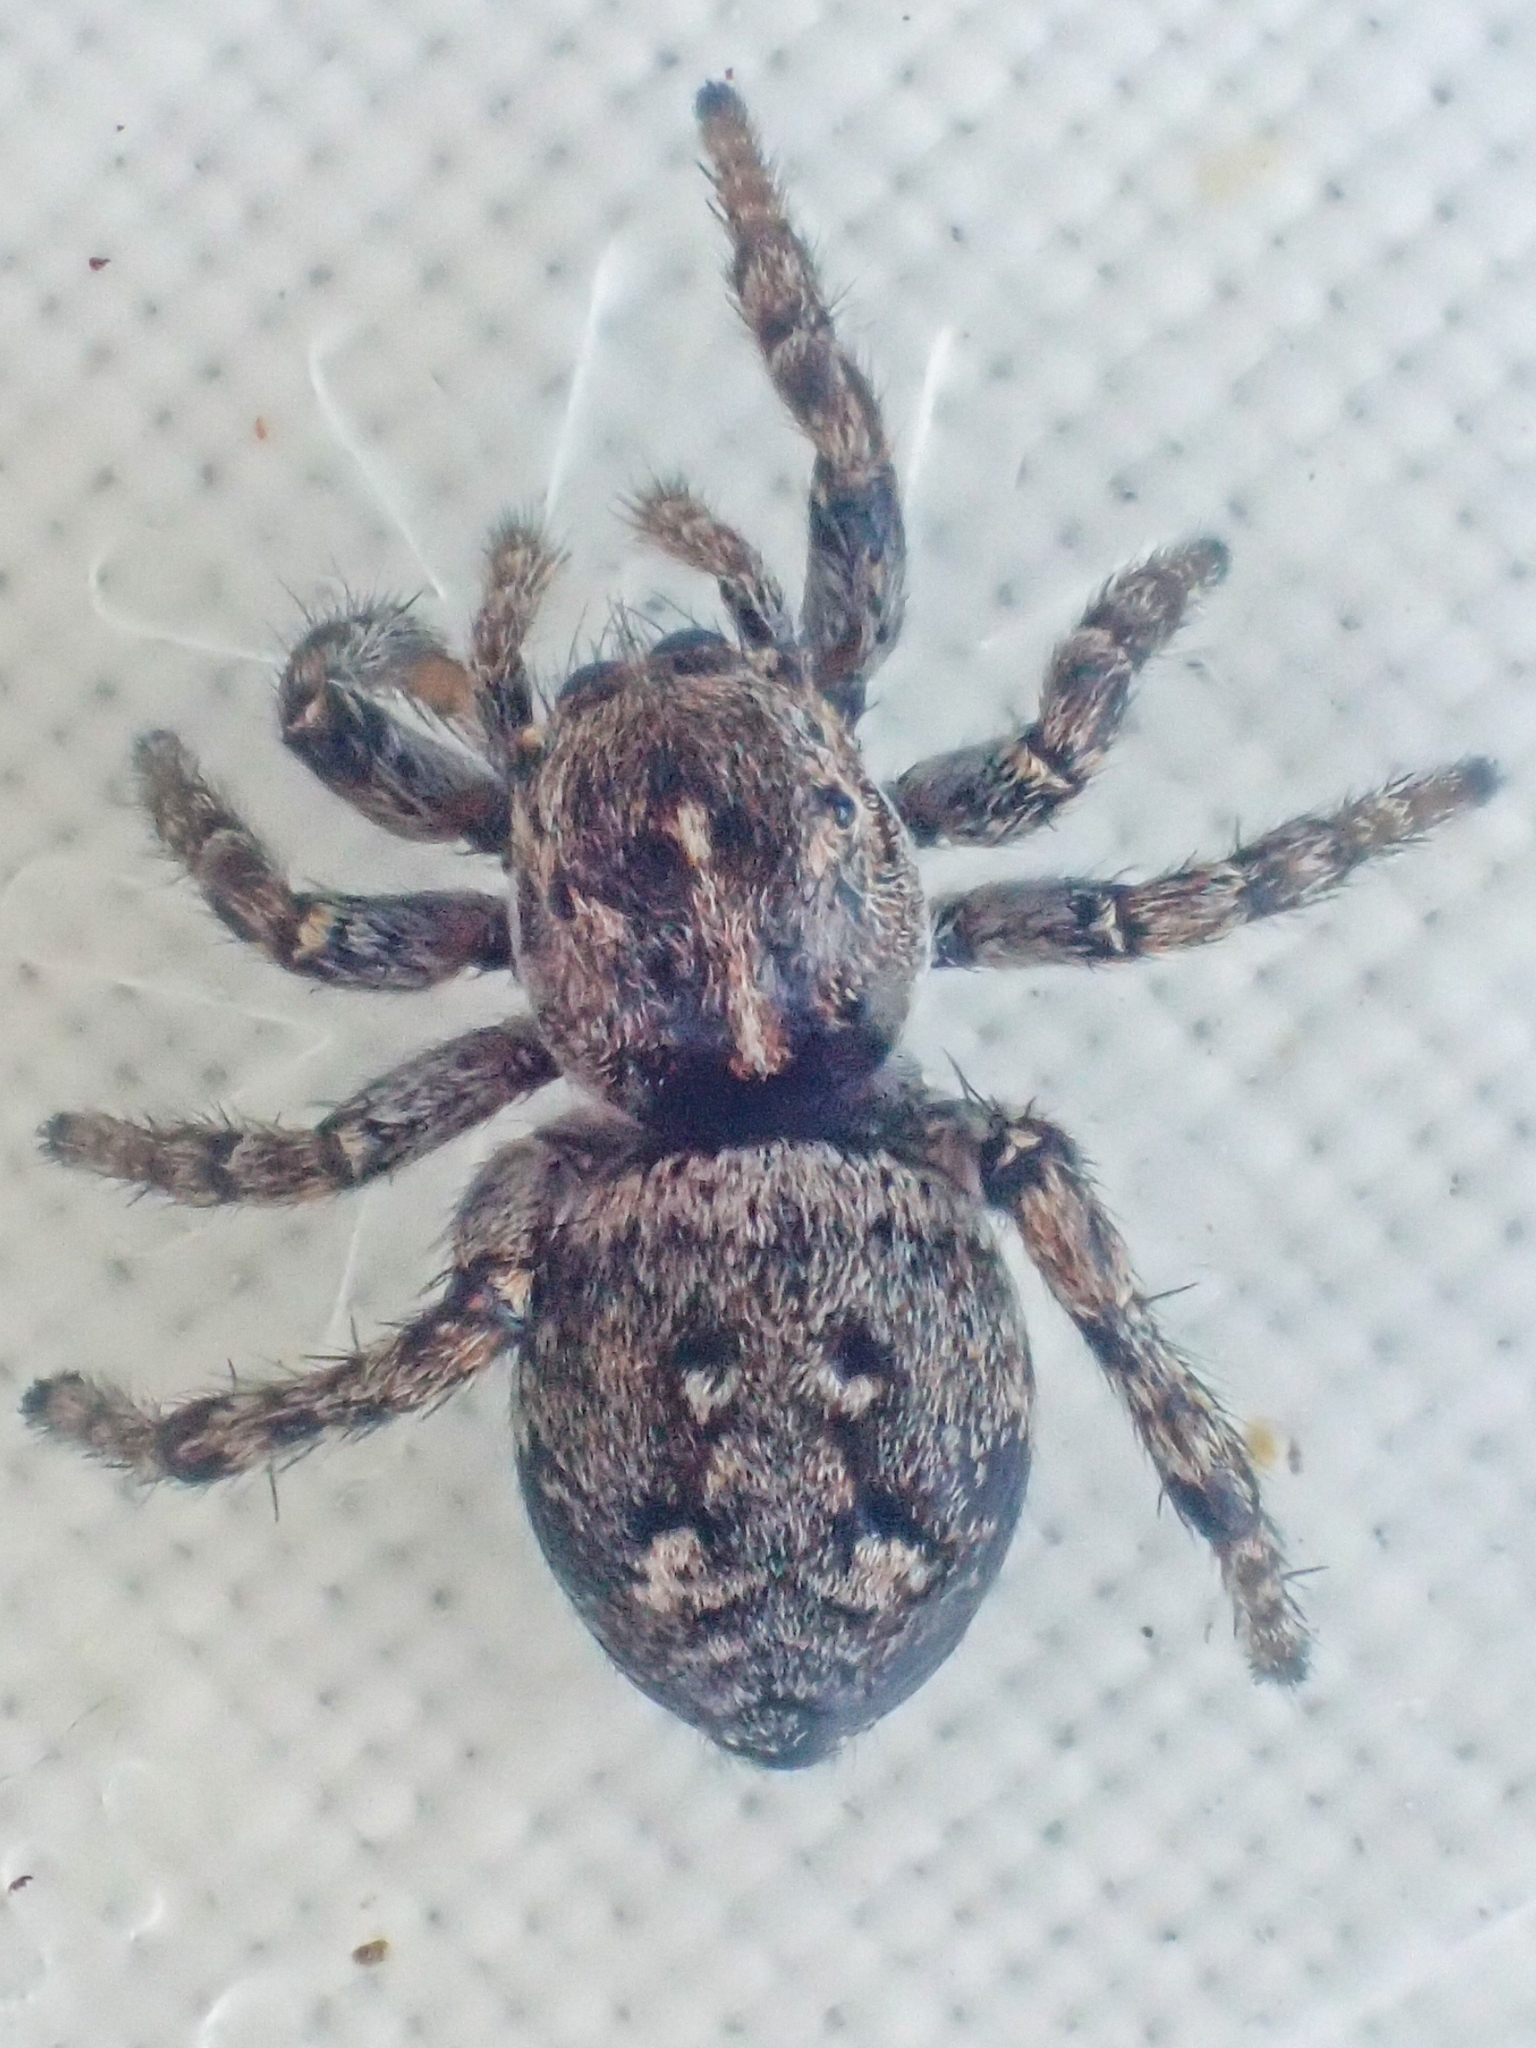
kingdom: Animalia
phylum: Arthropoda
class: Arachnida
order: Araneae
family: Salticidae
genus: Sittisax
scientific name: Sittisax ranieri
